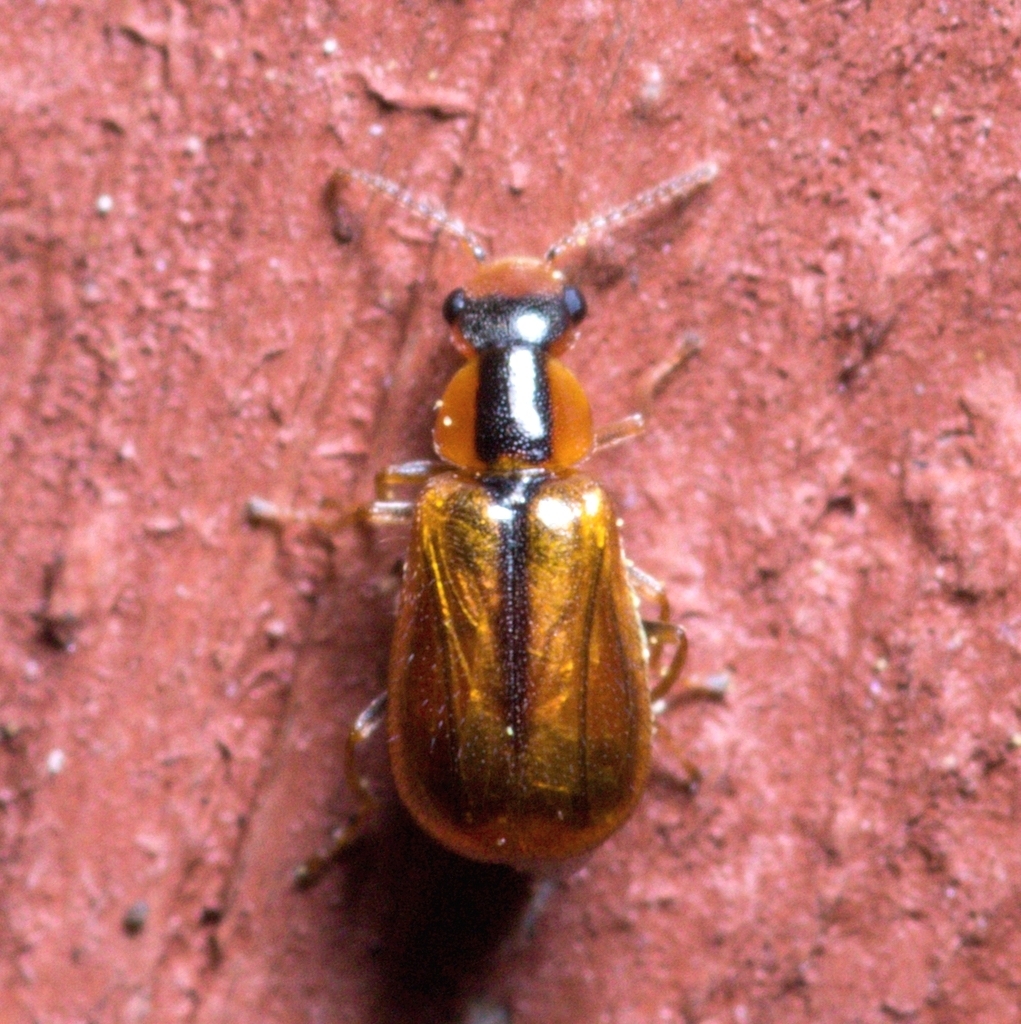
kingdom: Animalia
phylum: Arthropoda
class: Insecta
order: Coleoptera
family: Malachiidae
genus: Attalus
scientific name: Attalus
